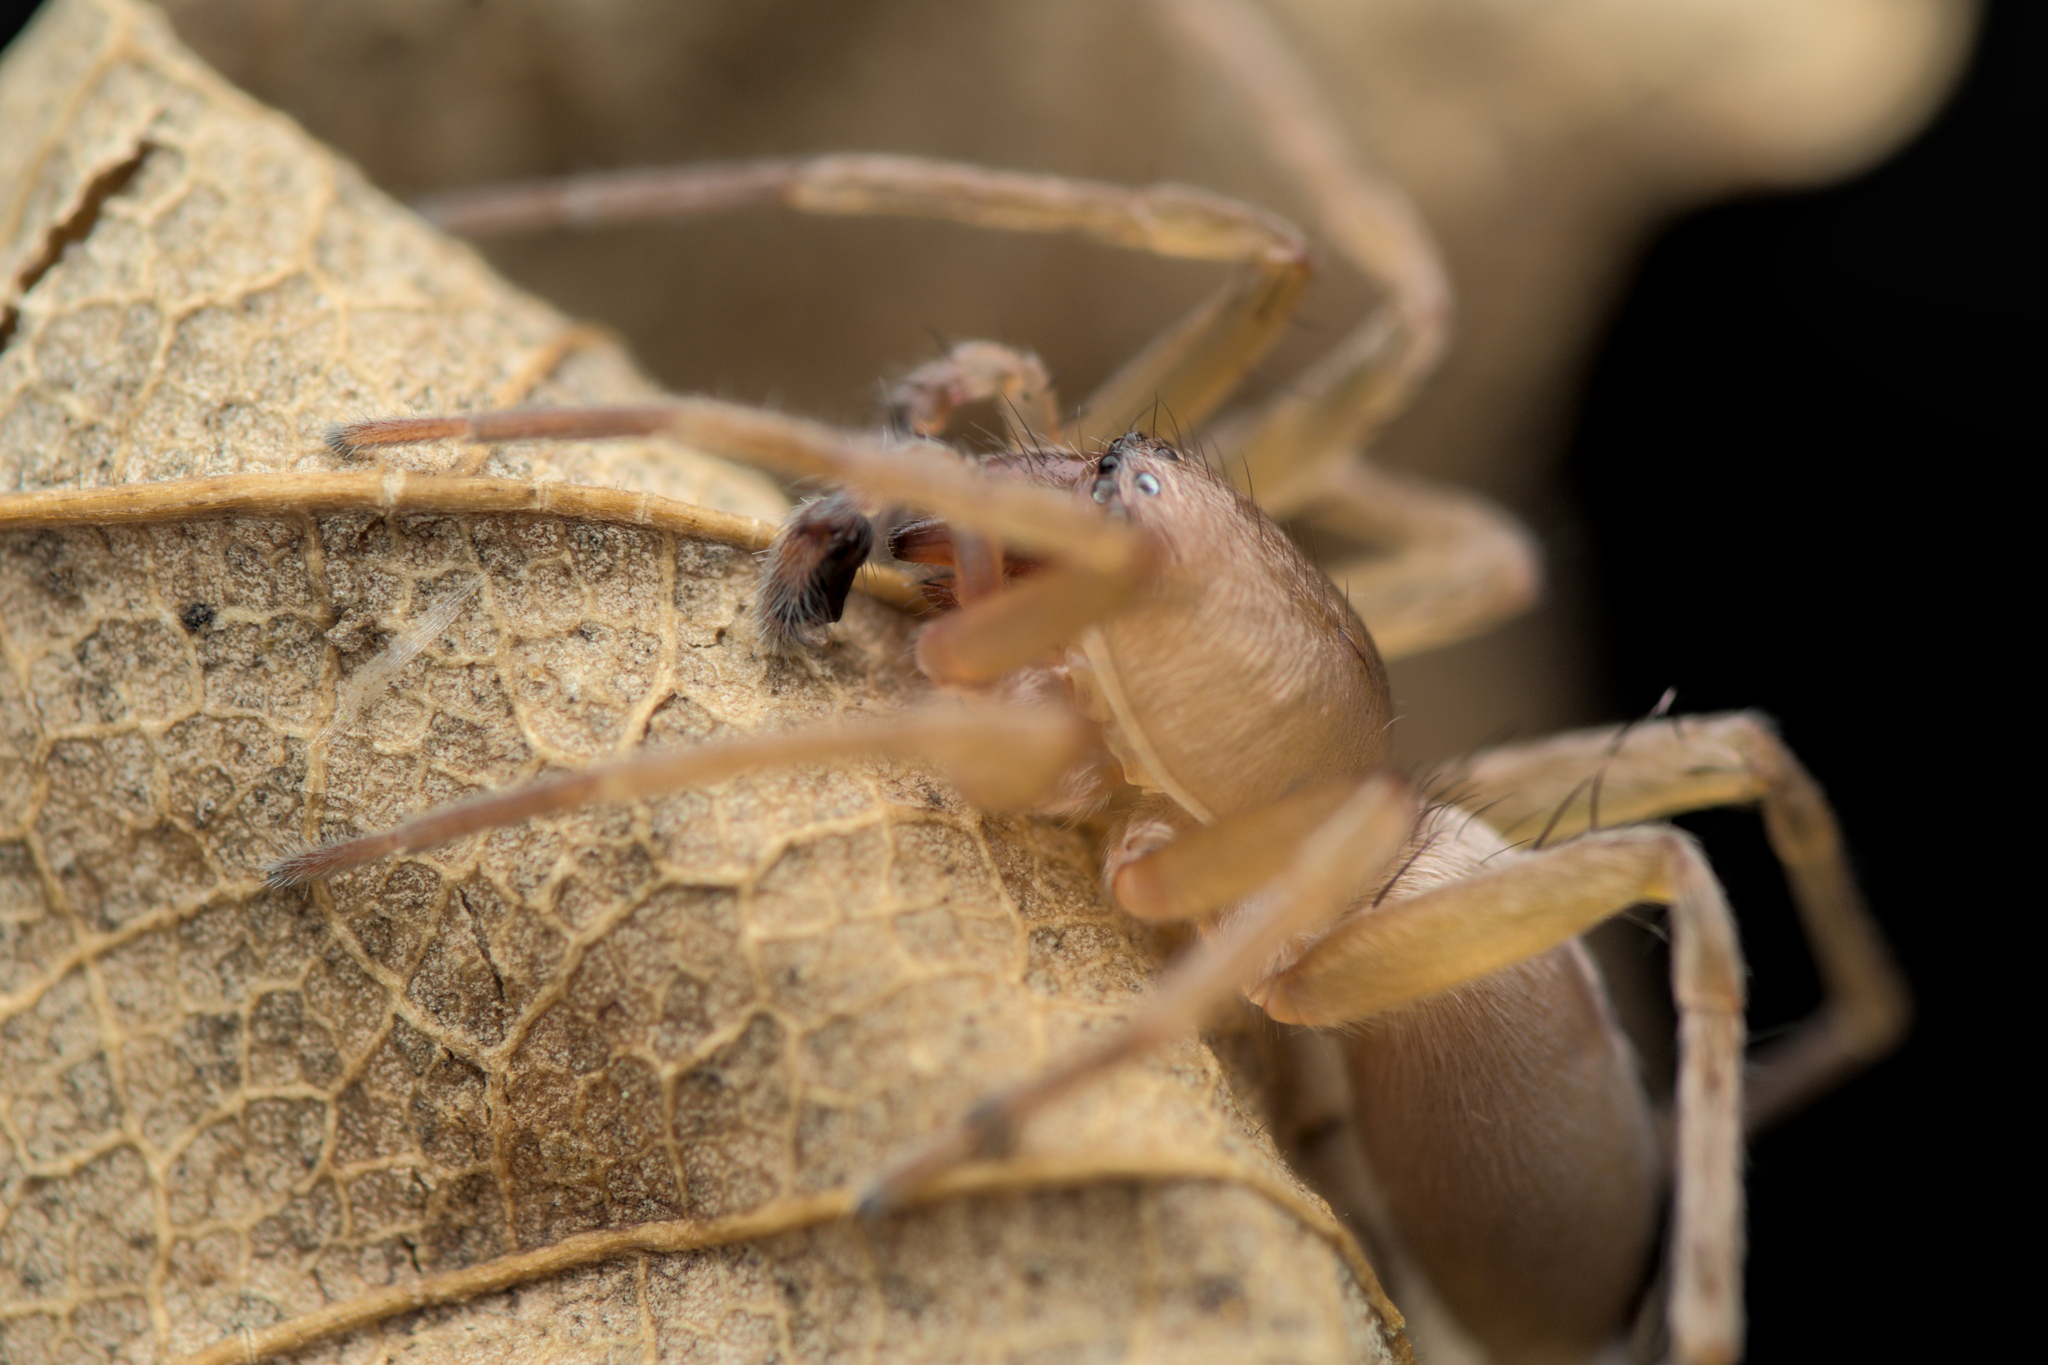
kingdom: Animalia
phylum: Arthropoda
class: Arachnida
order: Araneae
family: Clubionidae
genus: Clubiona
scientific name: Clubiona terrestris
